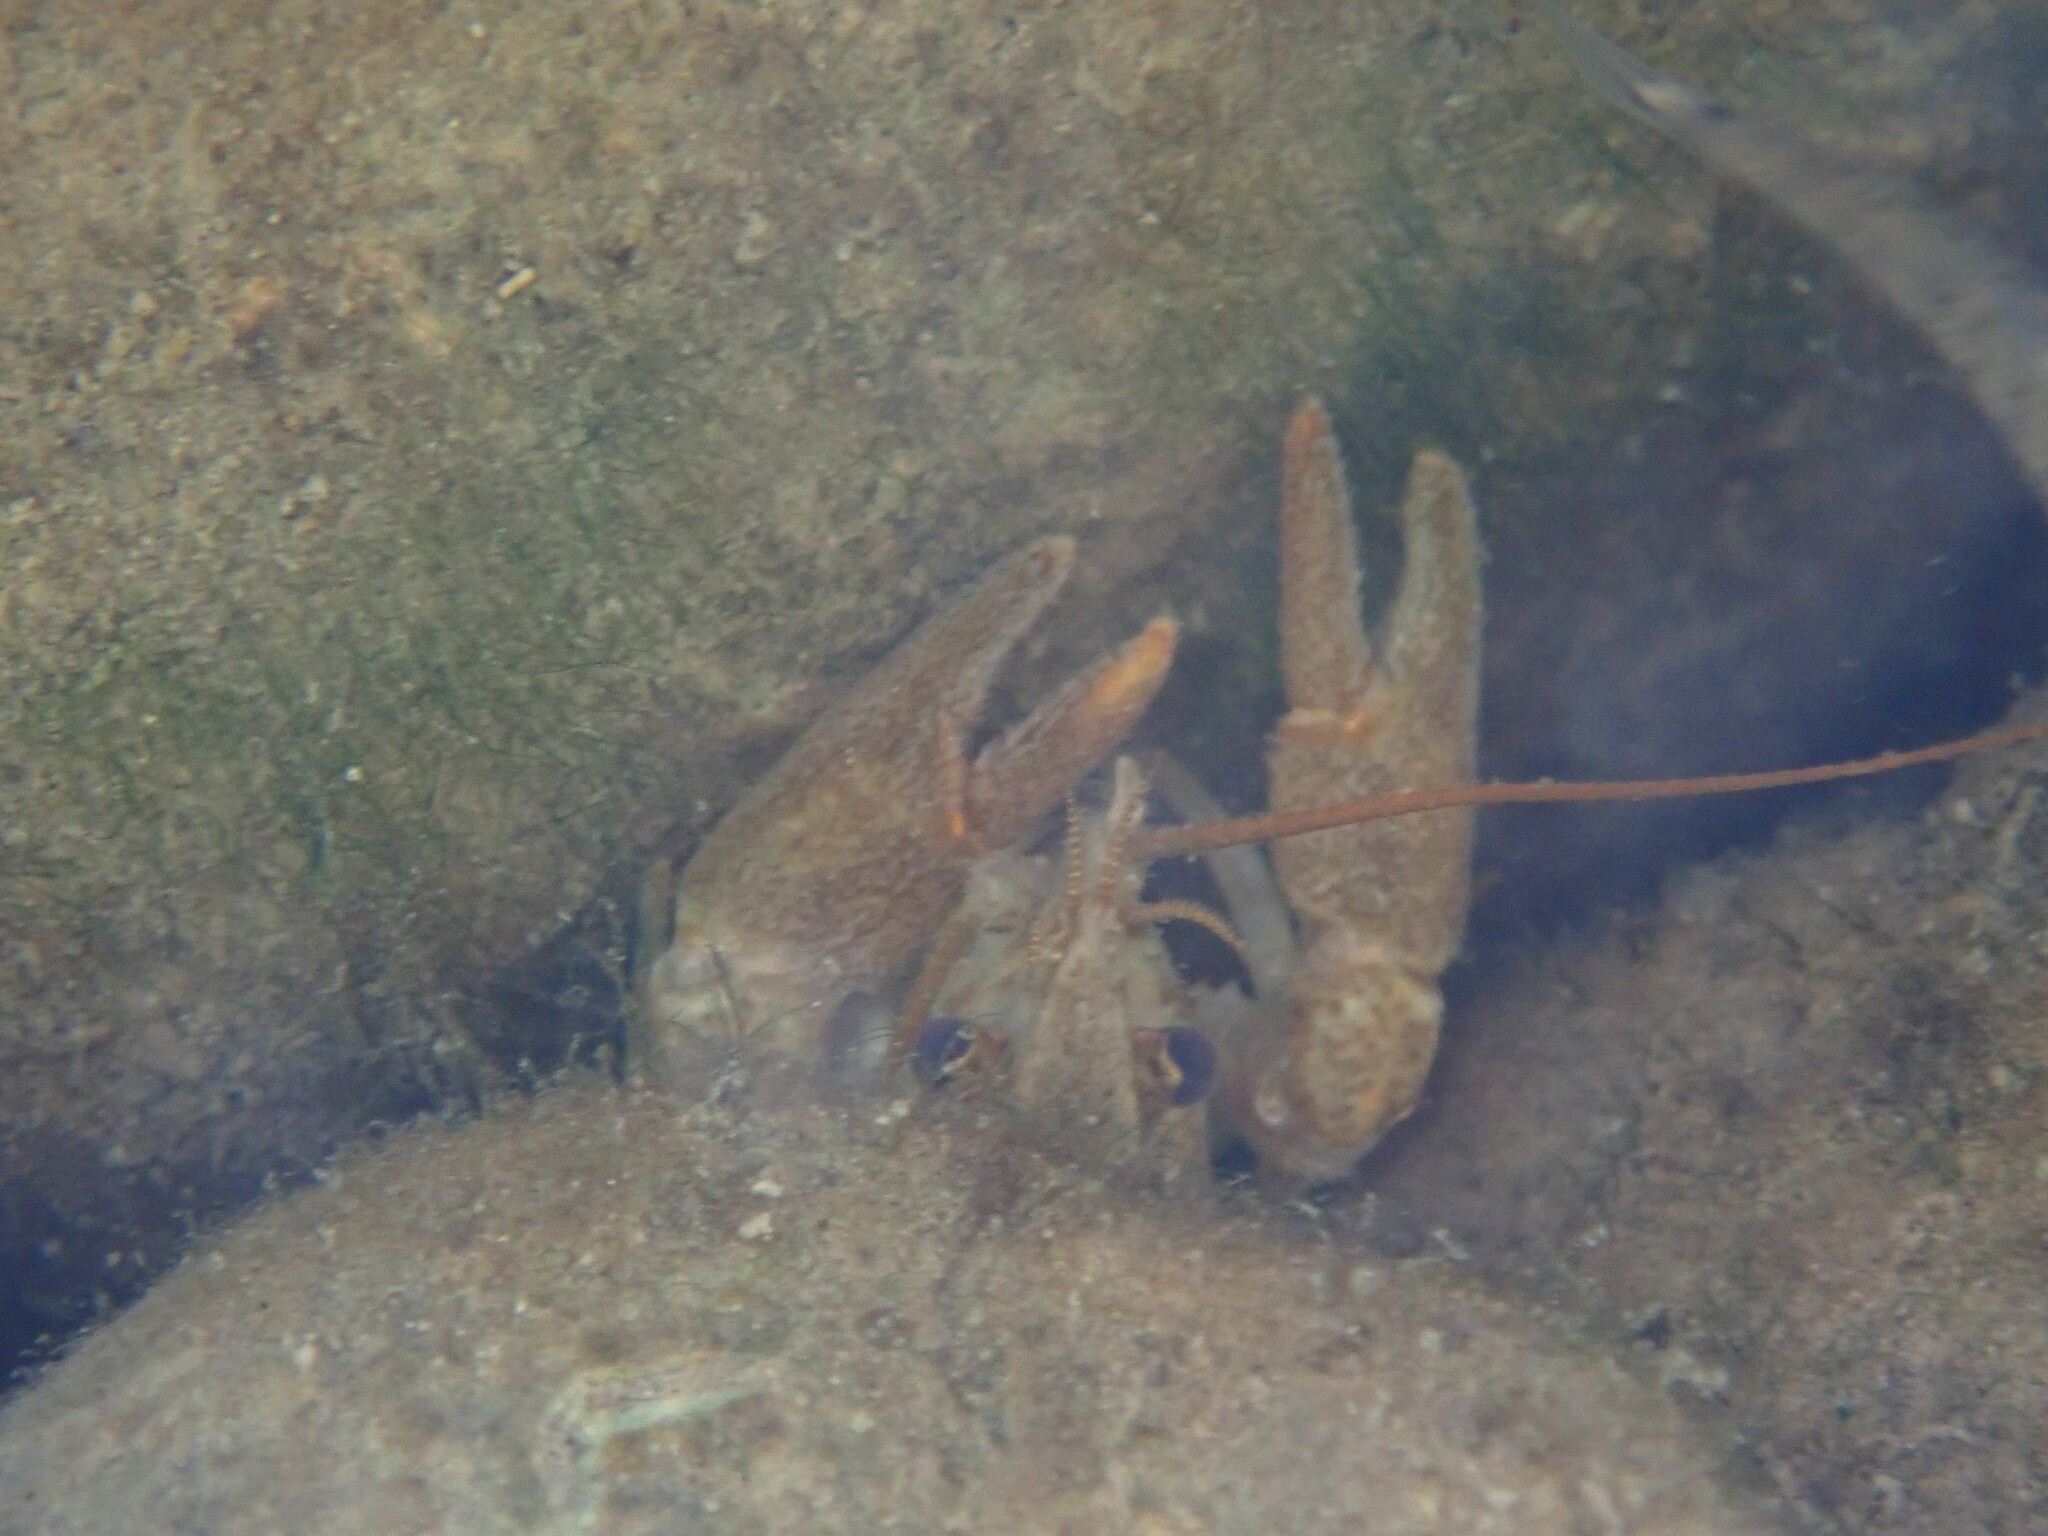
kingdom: Animalia
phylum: Arthropoda
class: Malacostraca
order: Decapoda
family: Astacidae
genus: Austropotamobius
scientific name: Austropotamobius pallipes
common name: White-clawed crayfish
